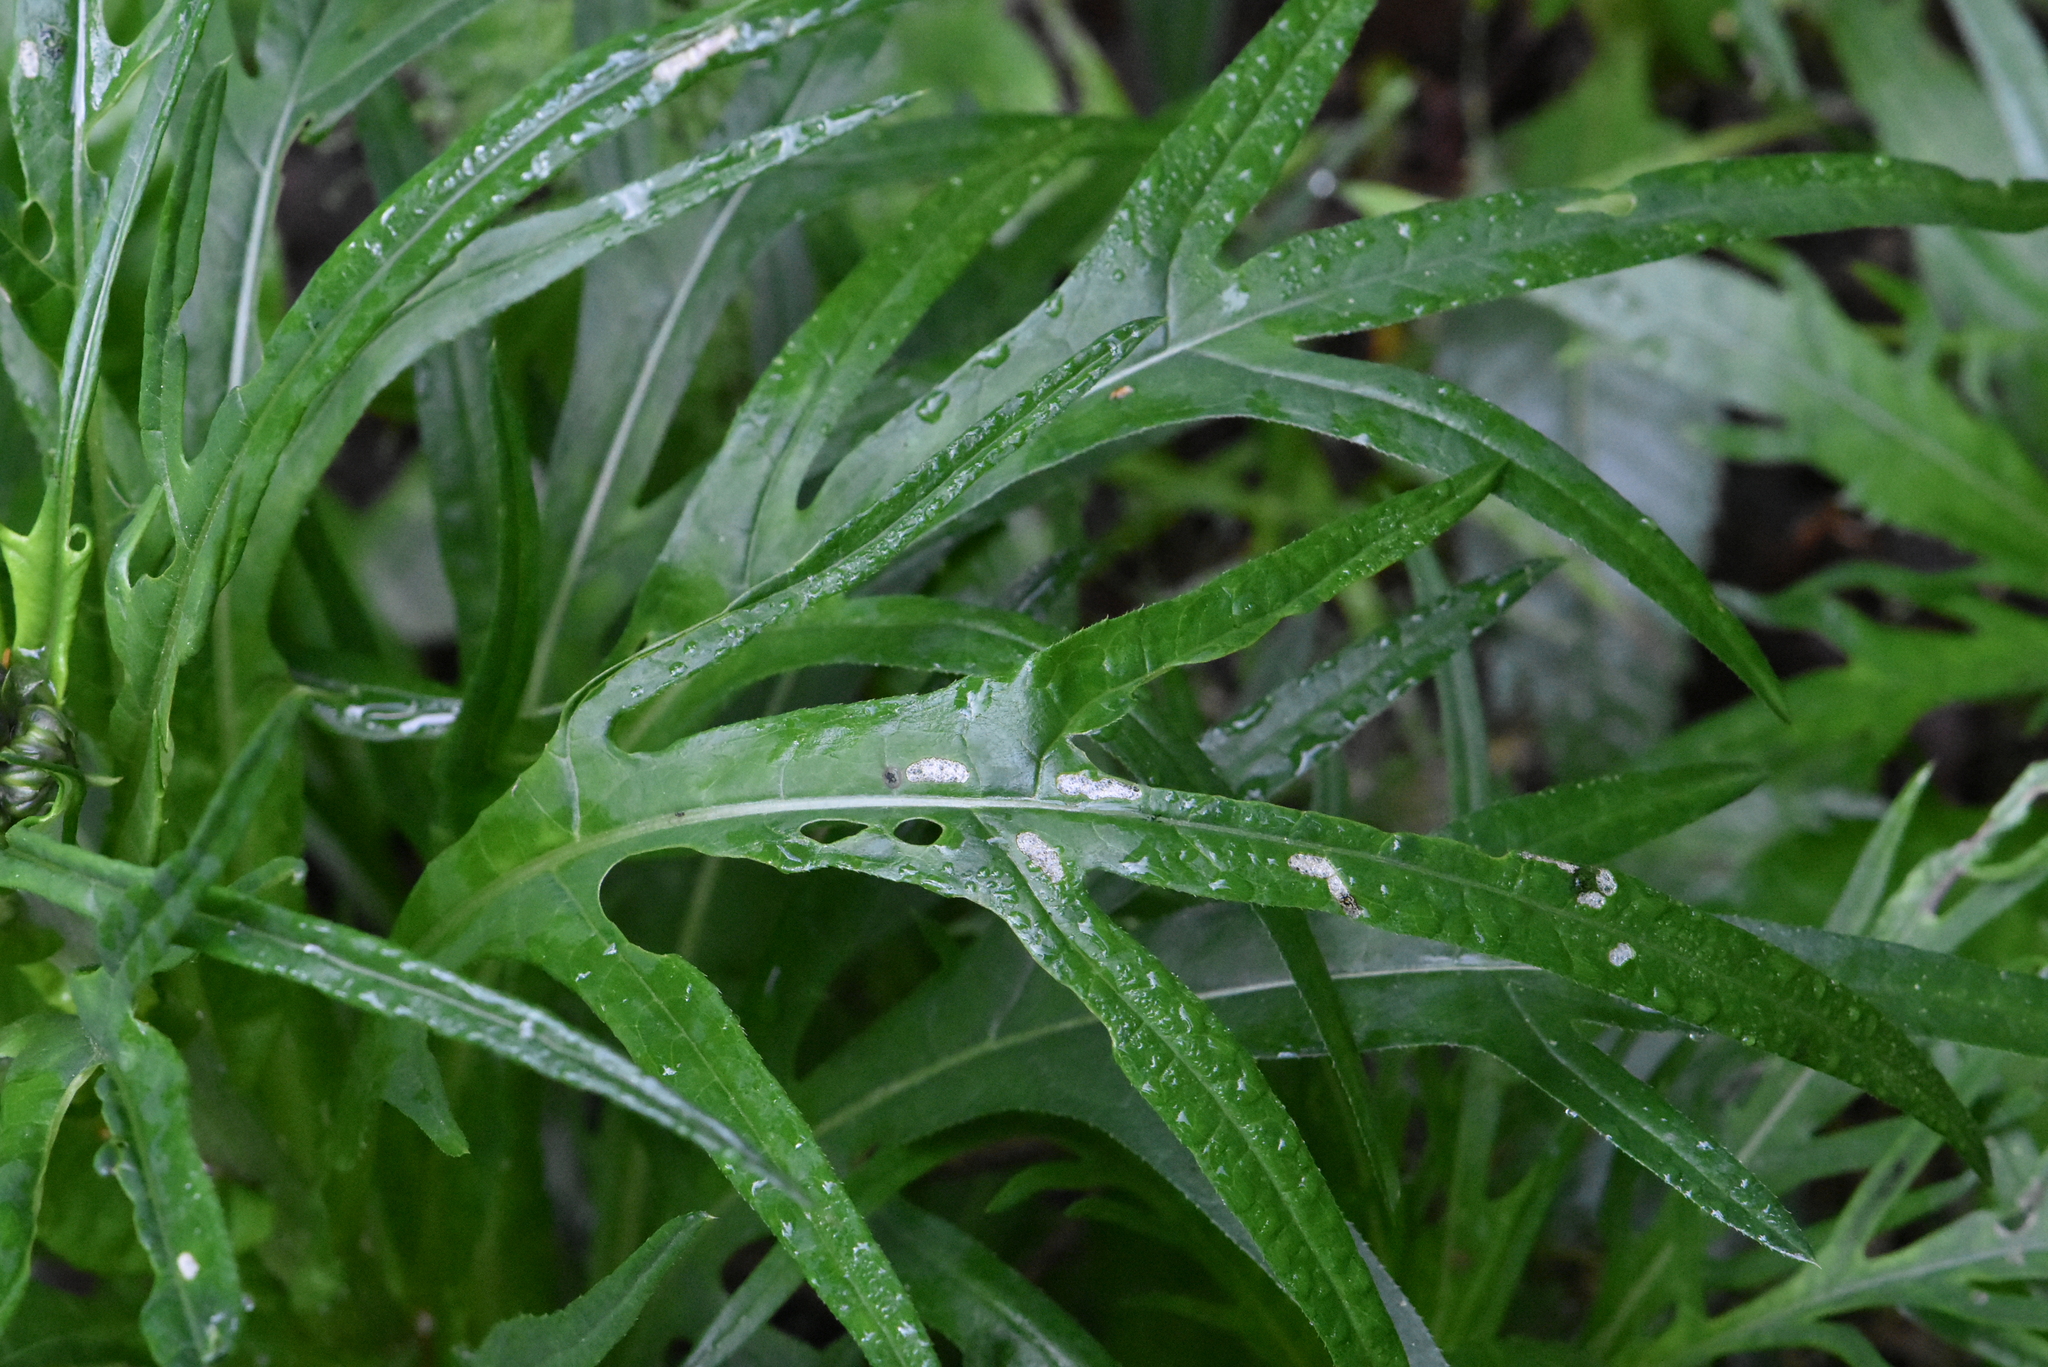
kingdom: Plantae
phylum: Tracheophyta
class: Magnoliopsida
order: Asterales
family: Asteraceae
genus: Cirsium
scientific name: Cirsium heterophyllum
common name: Melancholy thistle
